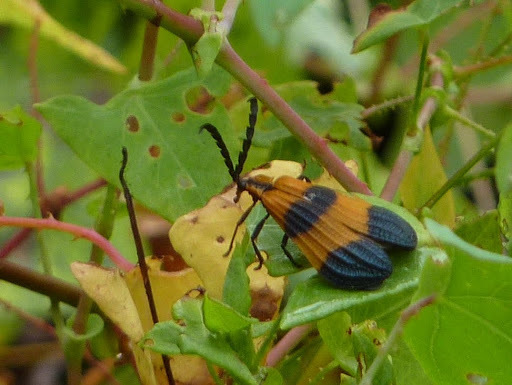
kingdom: Animalia
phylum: Arthropoda
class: Insecta
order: Coleoptera
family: Lycidae
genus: Calopteron
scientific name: Calopteron terminale
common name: End band net-winged beetle
